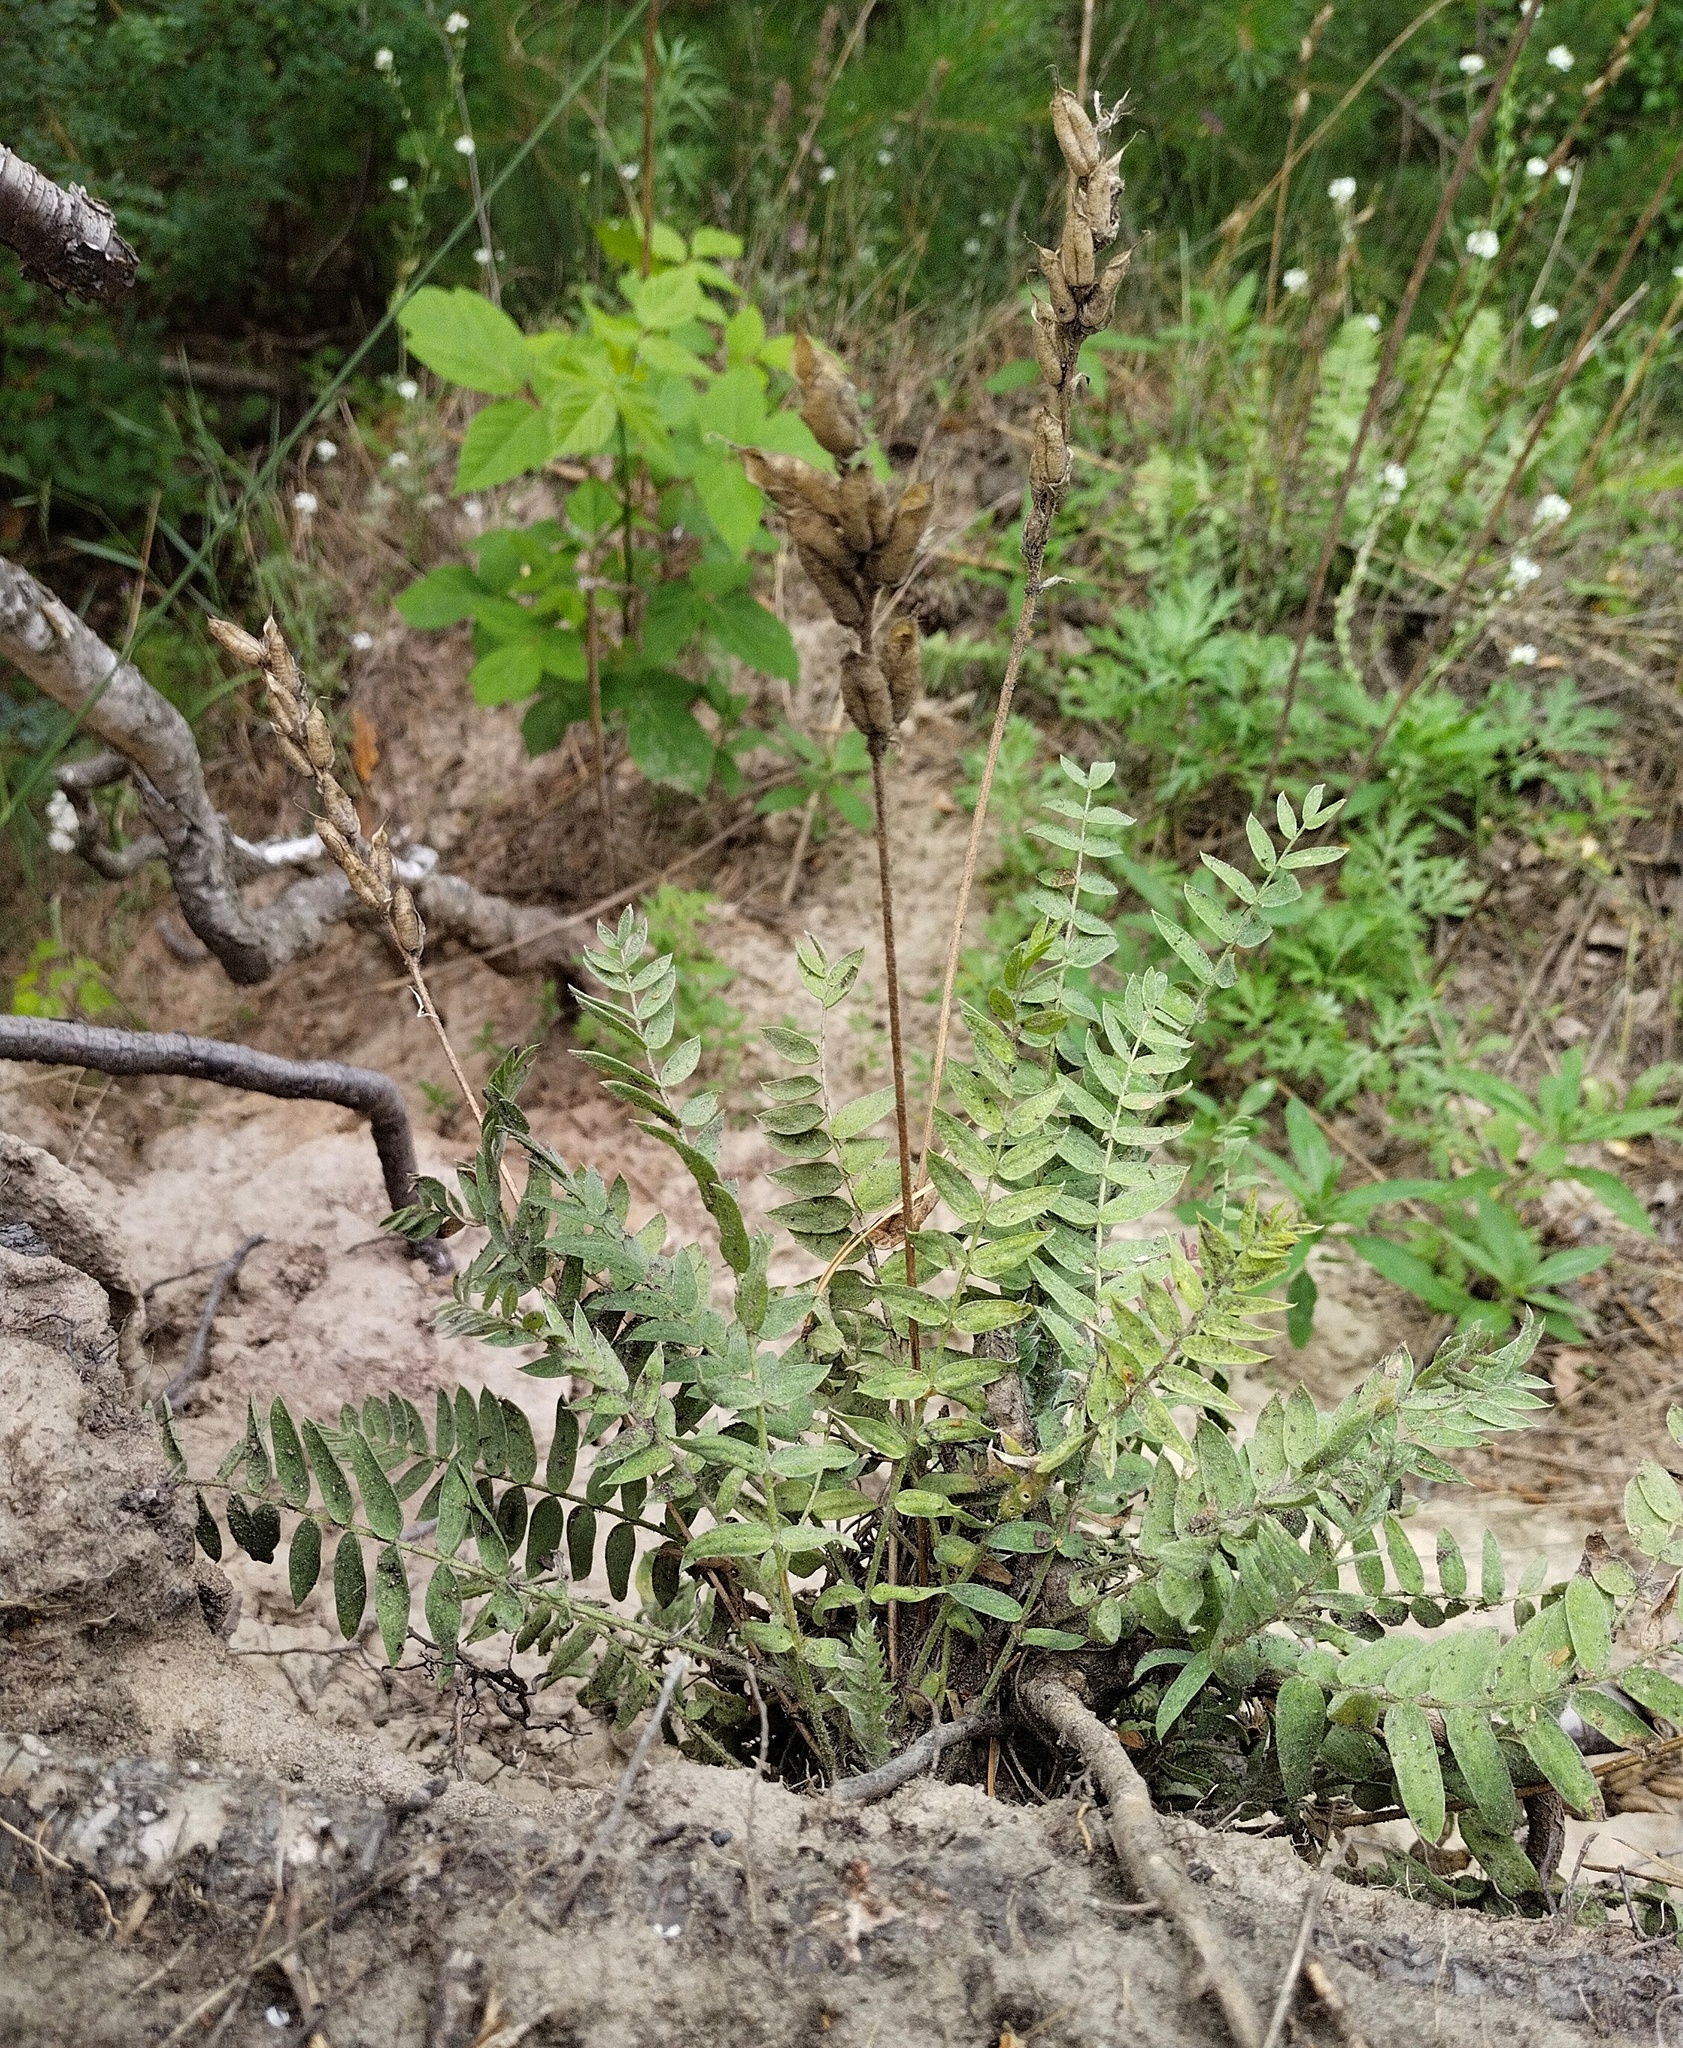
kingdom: Plantae
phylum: Tracheophyta
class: Magnoliopsida
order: Fabales
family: Fabaceae
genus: Oxytropis
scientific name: Oxytropis strobilacea
